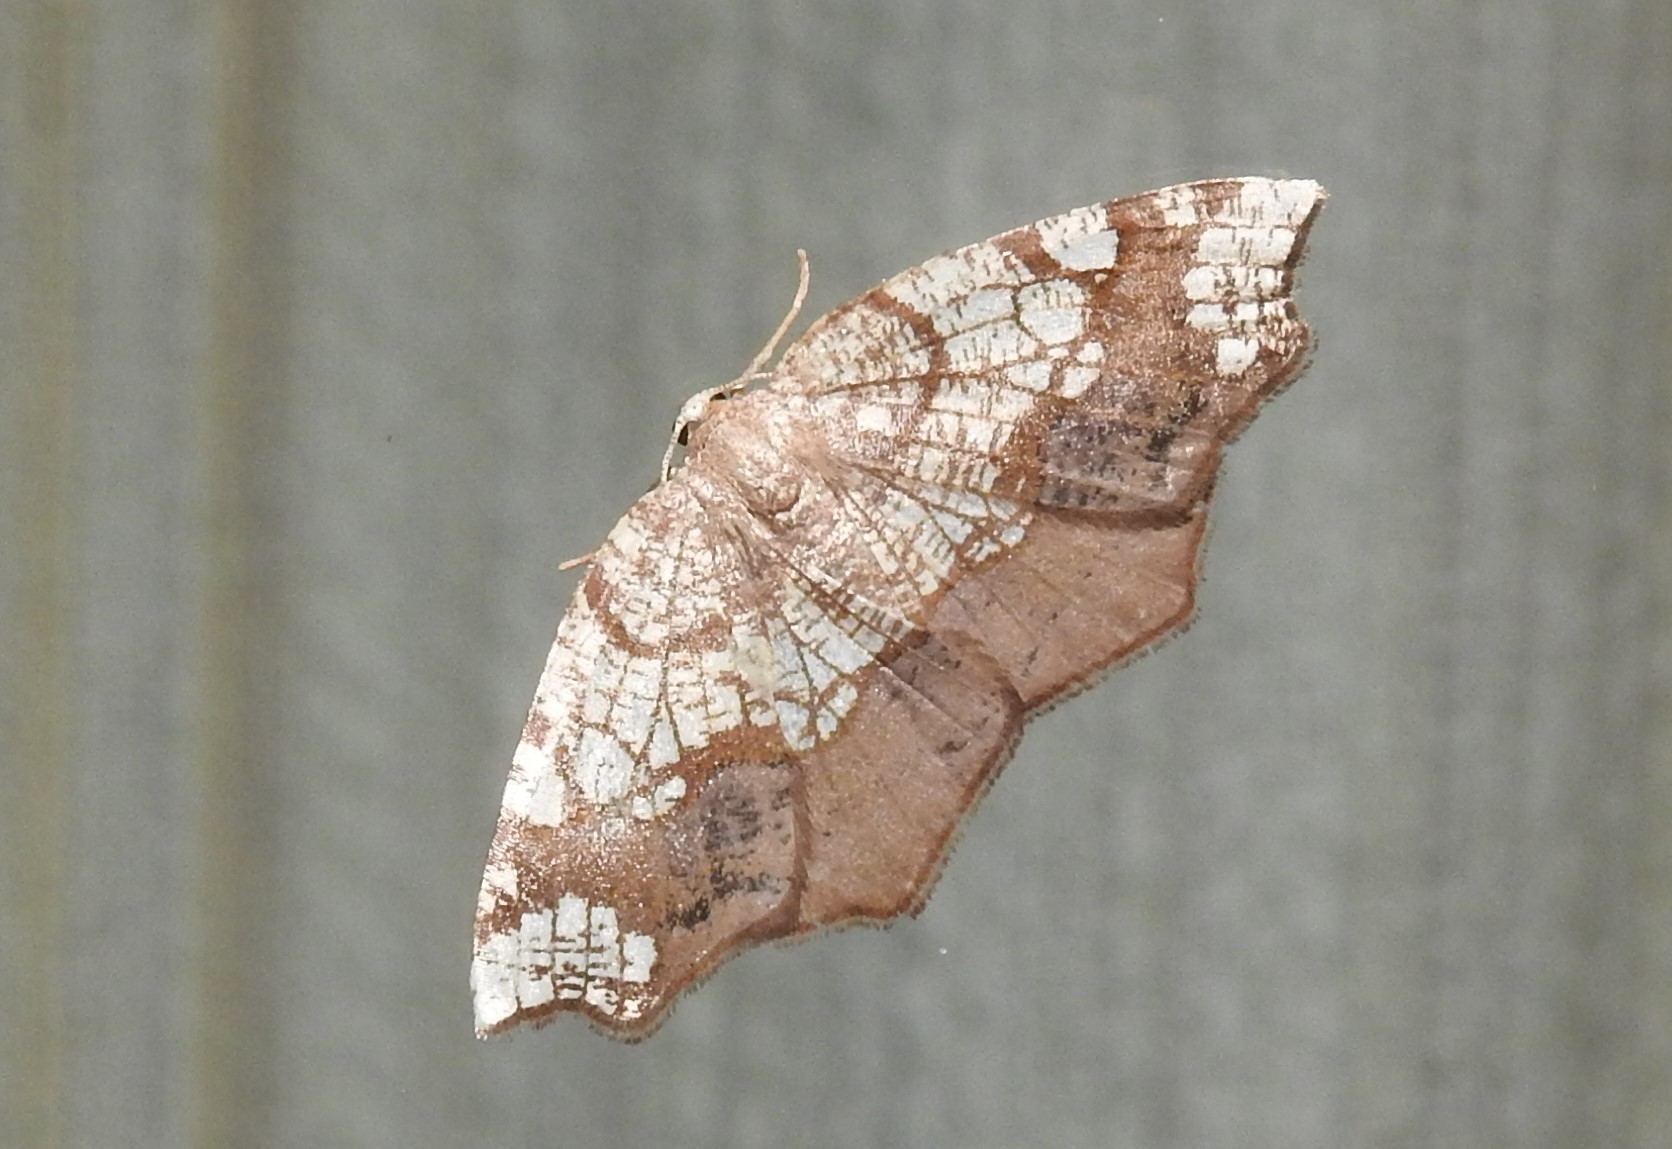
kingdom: Animalia
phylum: Arthropoda
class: Insecta
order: Lepidoptera
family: Geometridae
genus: Nematocampa
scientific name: Nematocampa resistaria
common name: Horned spanworm moth
